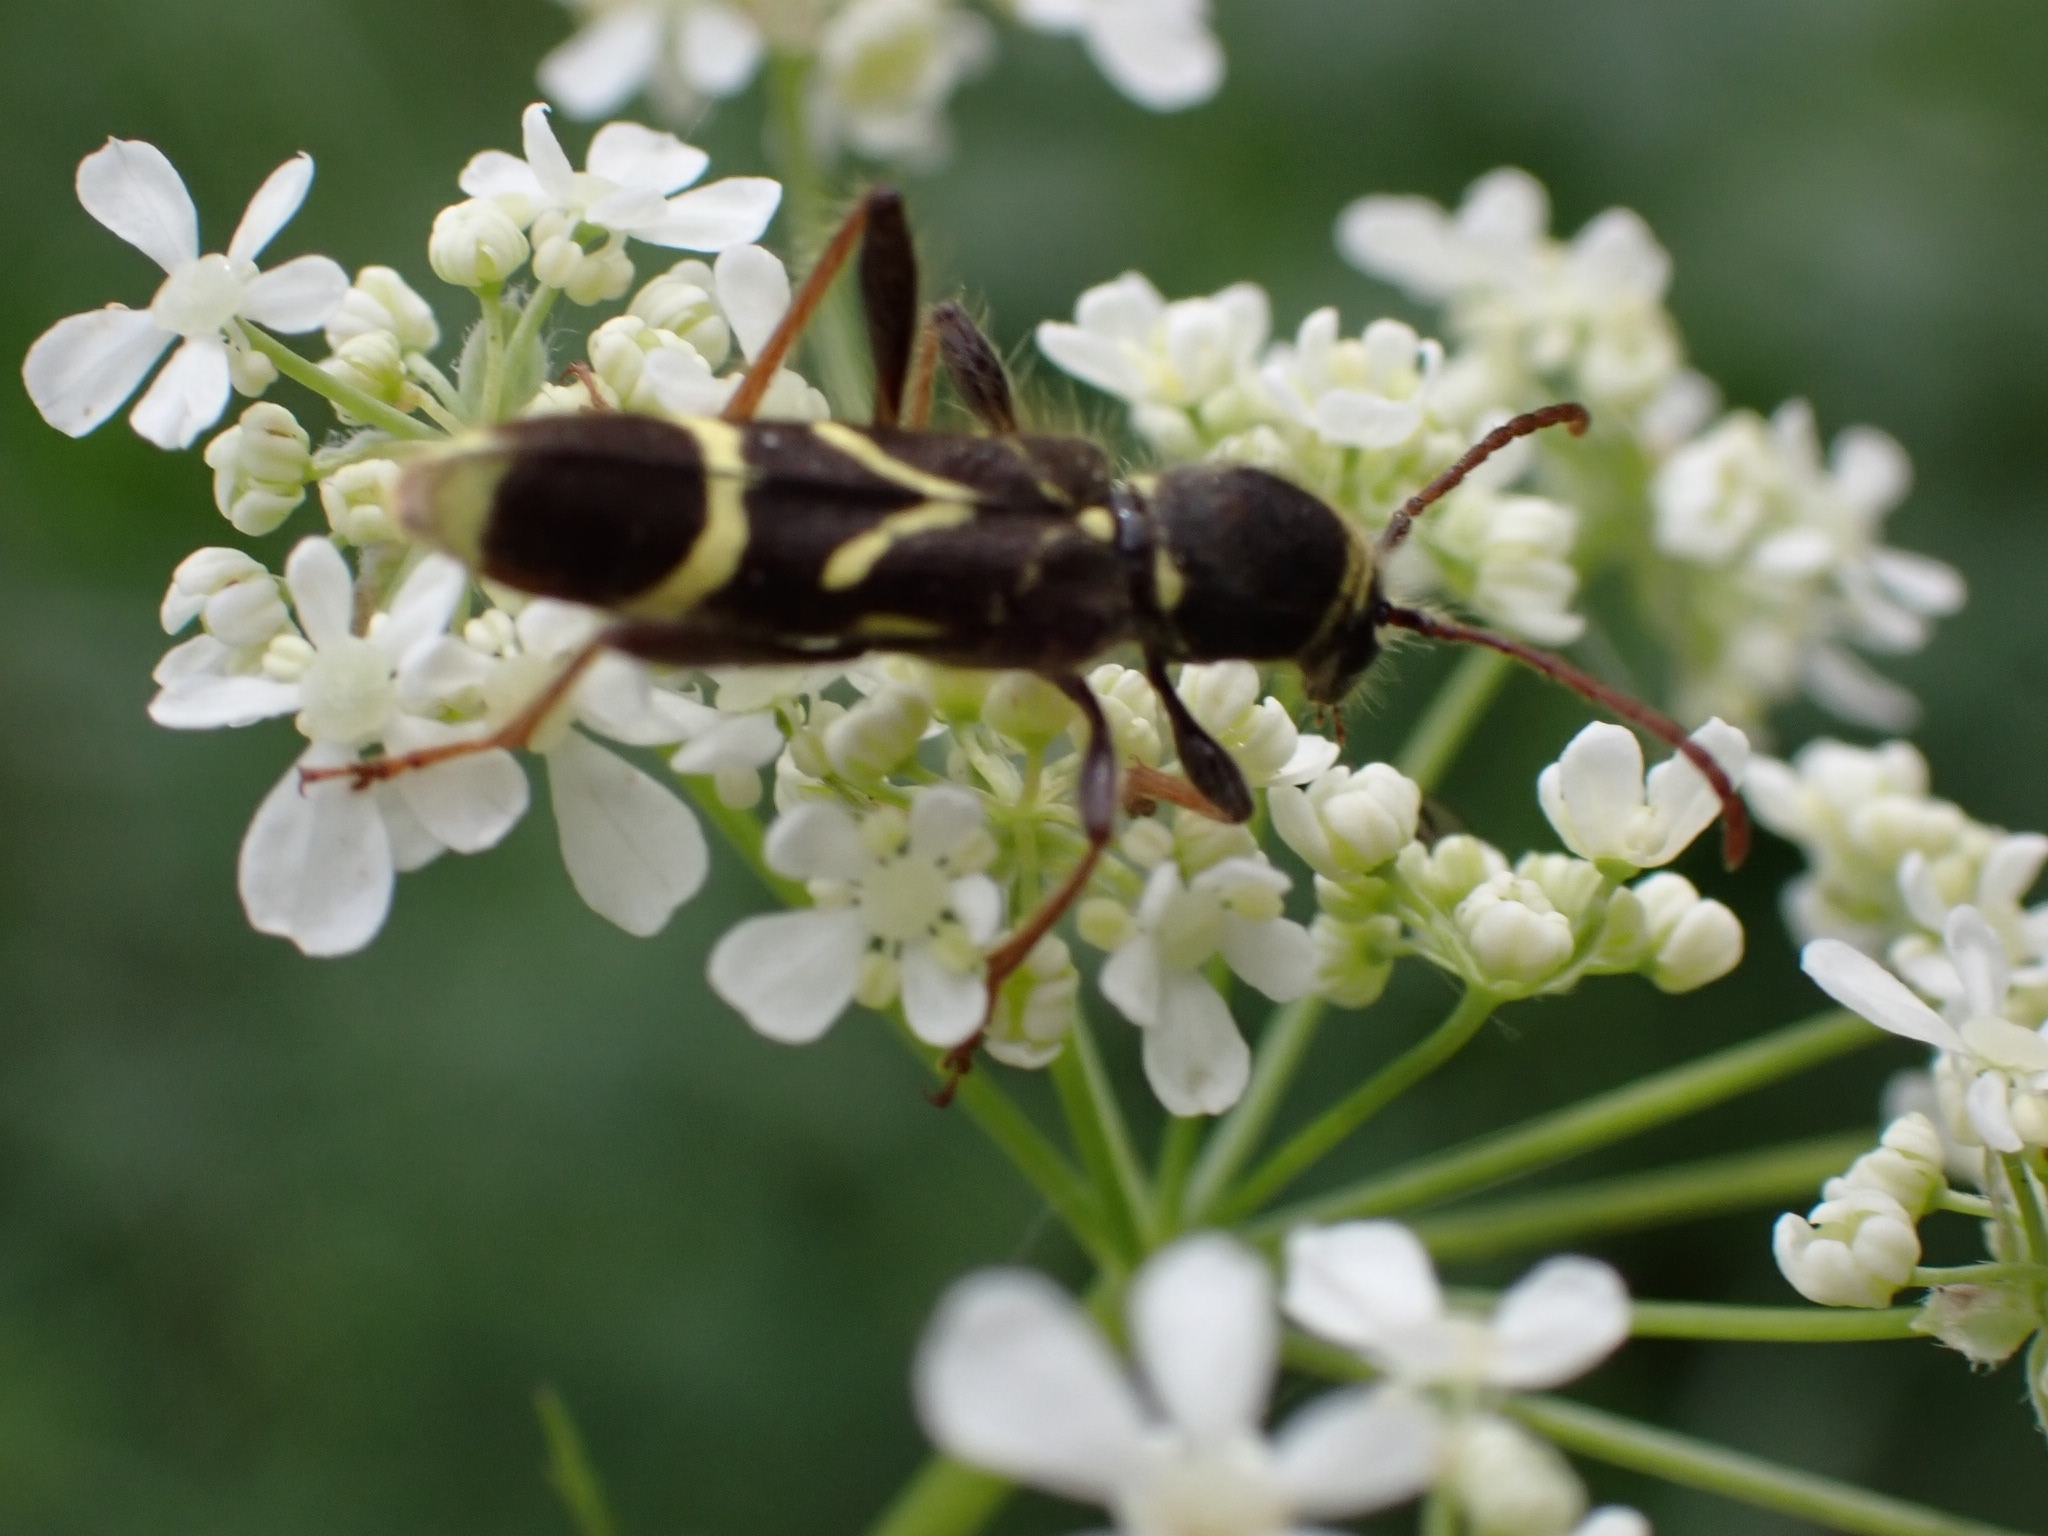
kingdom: Animalia
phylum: Arthropoda
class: Insecta
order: Coleoptera
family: Cerambycidae
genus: Cyrtoclytus
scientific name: Cyrtoclytus capra
